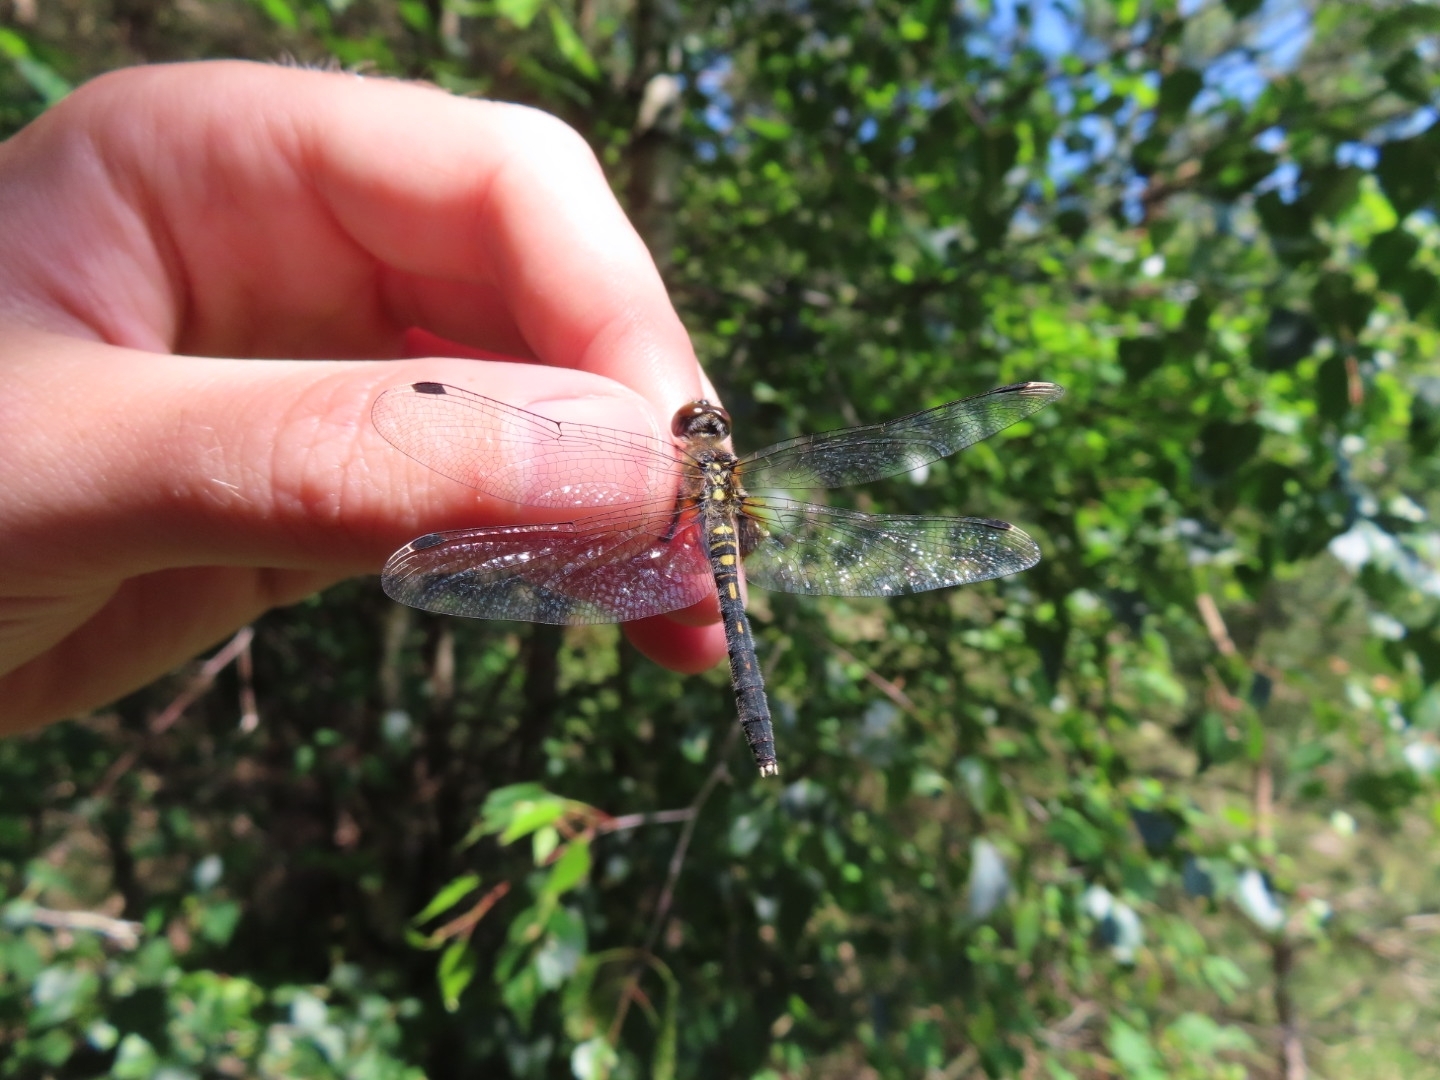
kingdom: Animalia
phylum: Arthropoda
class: Insecta
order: Odonata
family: Libellulidae
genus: Leucorrhinia
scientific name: Leucorrhinia albifrons
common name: Dark whiteface
